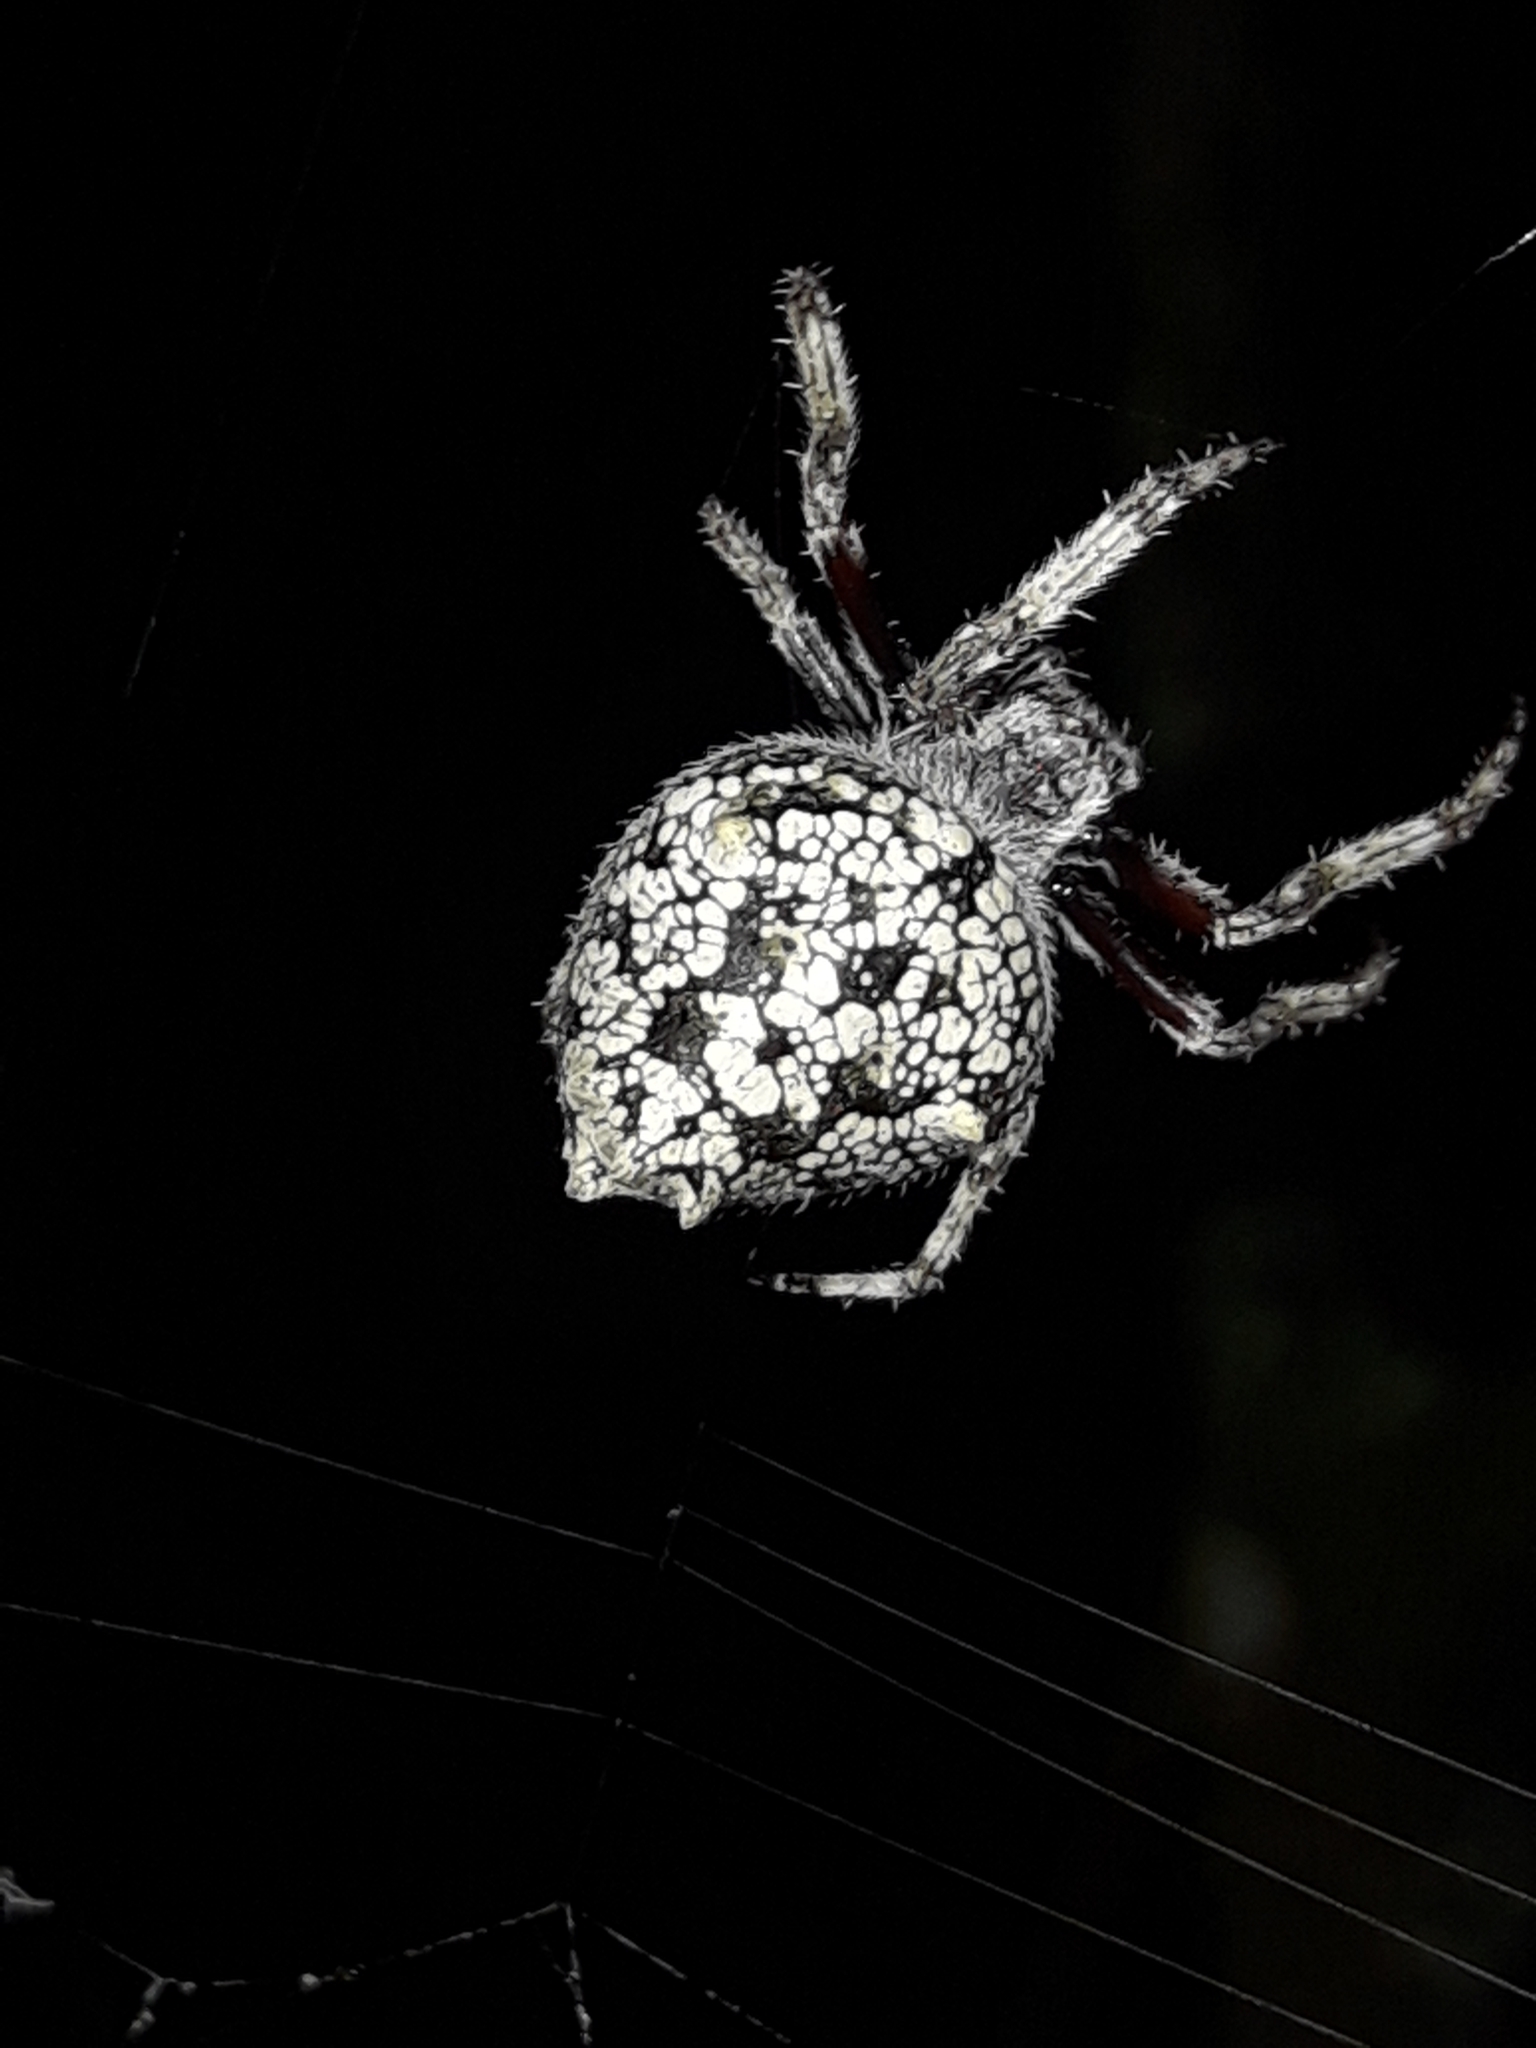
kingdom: Animalia
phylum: Arthropoda
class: Arachnida
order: Araneae
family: Araneidae
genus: Eriophora
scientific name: Eriophora pustulosa
